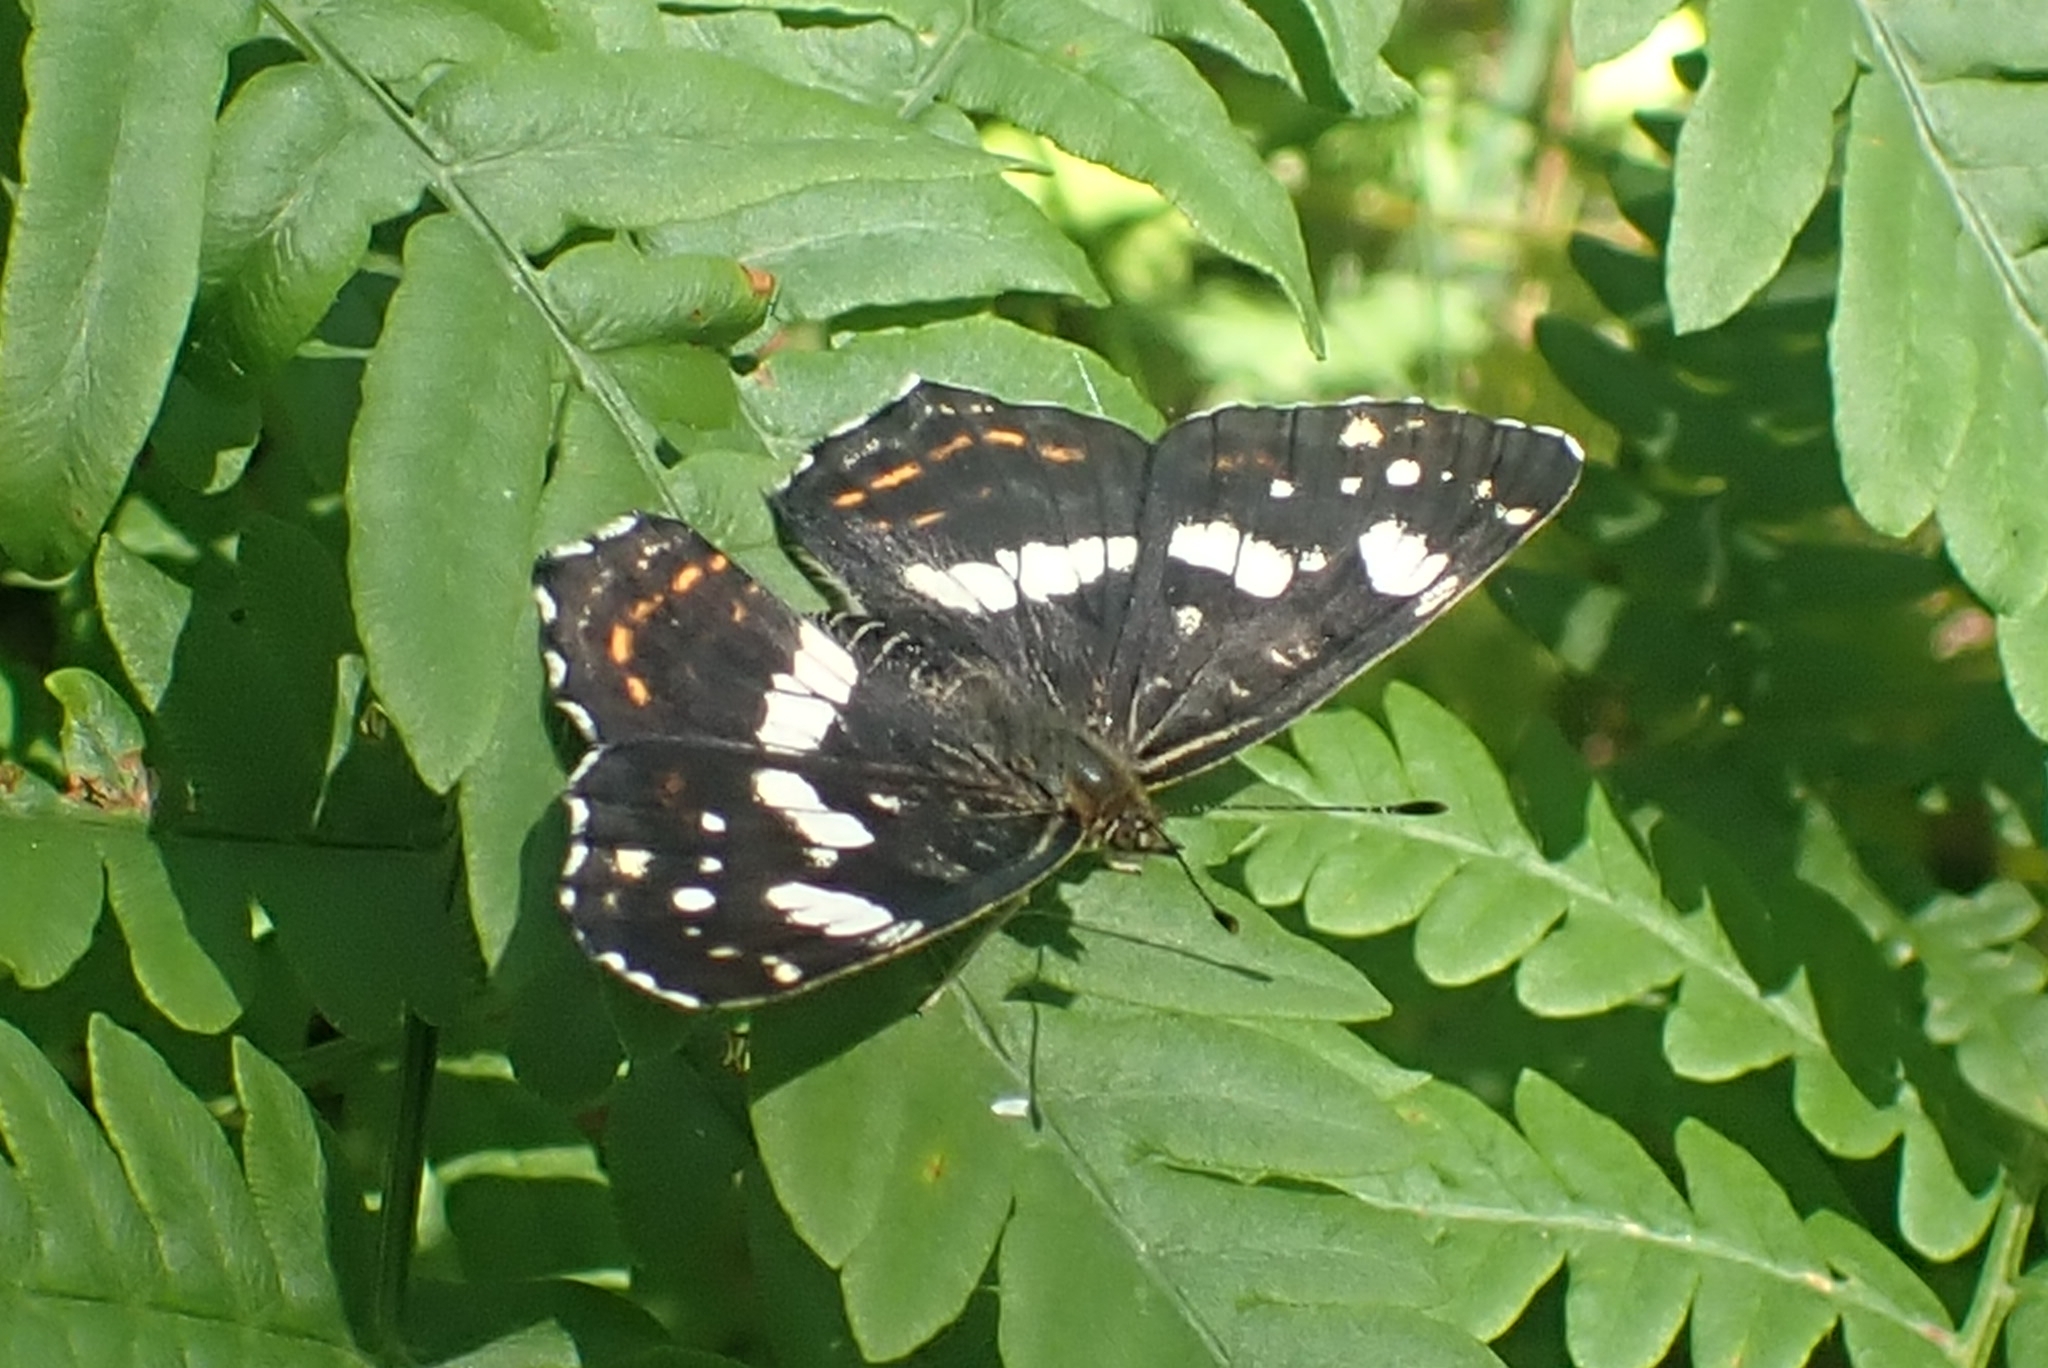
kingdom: Animalia
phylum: Arthropoda
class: Insecta
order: Lepidoptera
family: Nymphalidae
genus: Araschnia
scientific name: Araschnia levana
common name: Map butterfly
